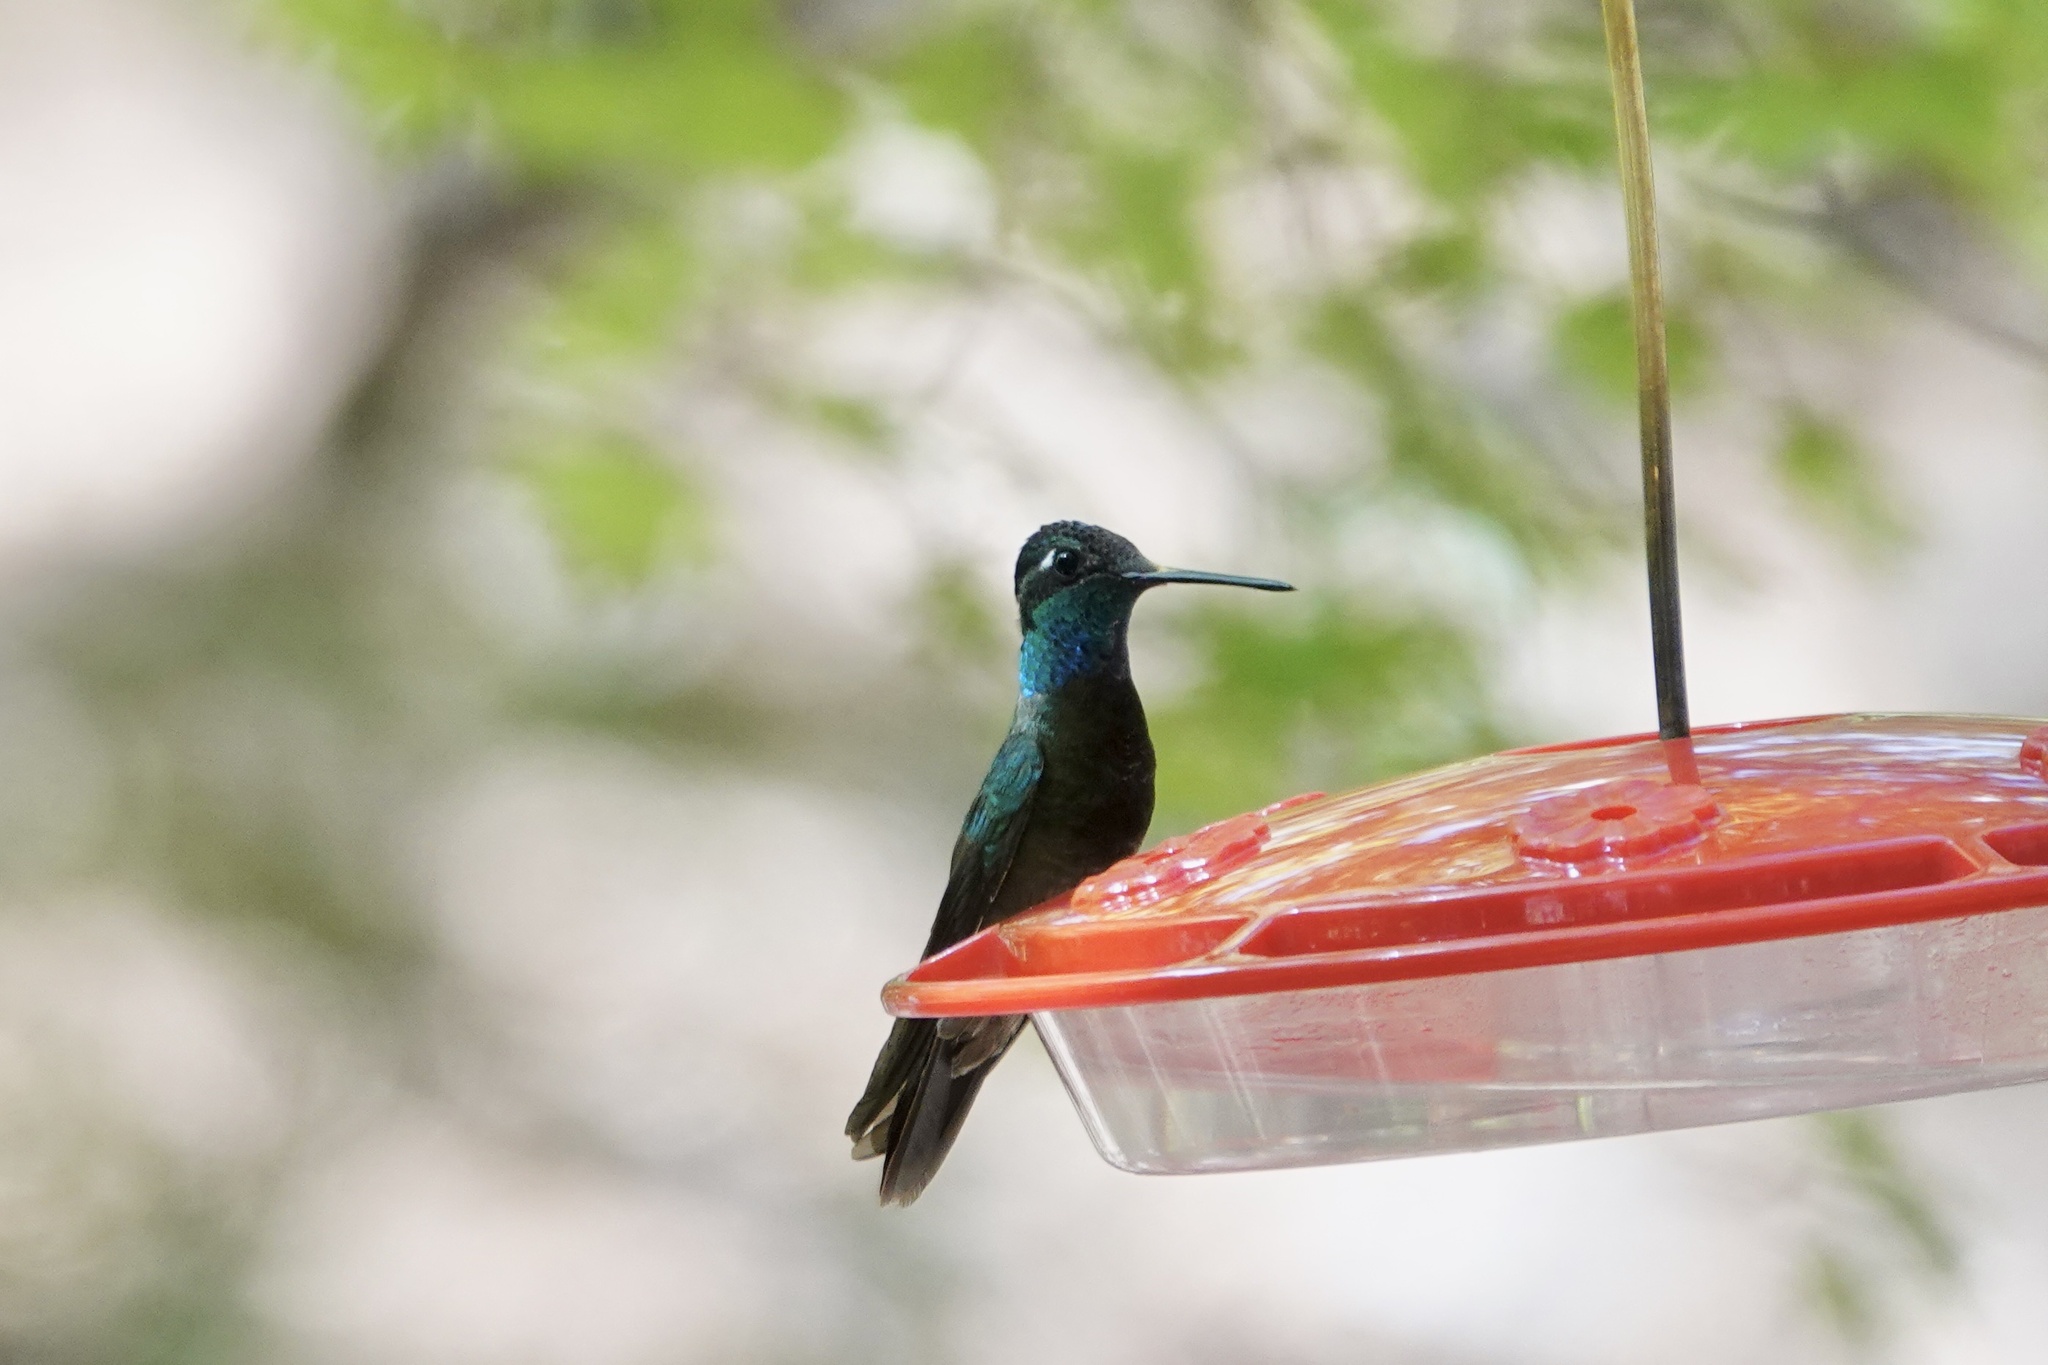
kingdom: Animalia
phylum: Chordata
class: Aves
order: Apodiformes
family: Trochilidae
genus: Eugenes
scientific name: Eugenes fulgens
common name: Magnificent hummingbird
